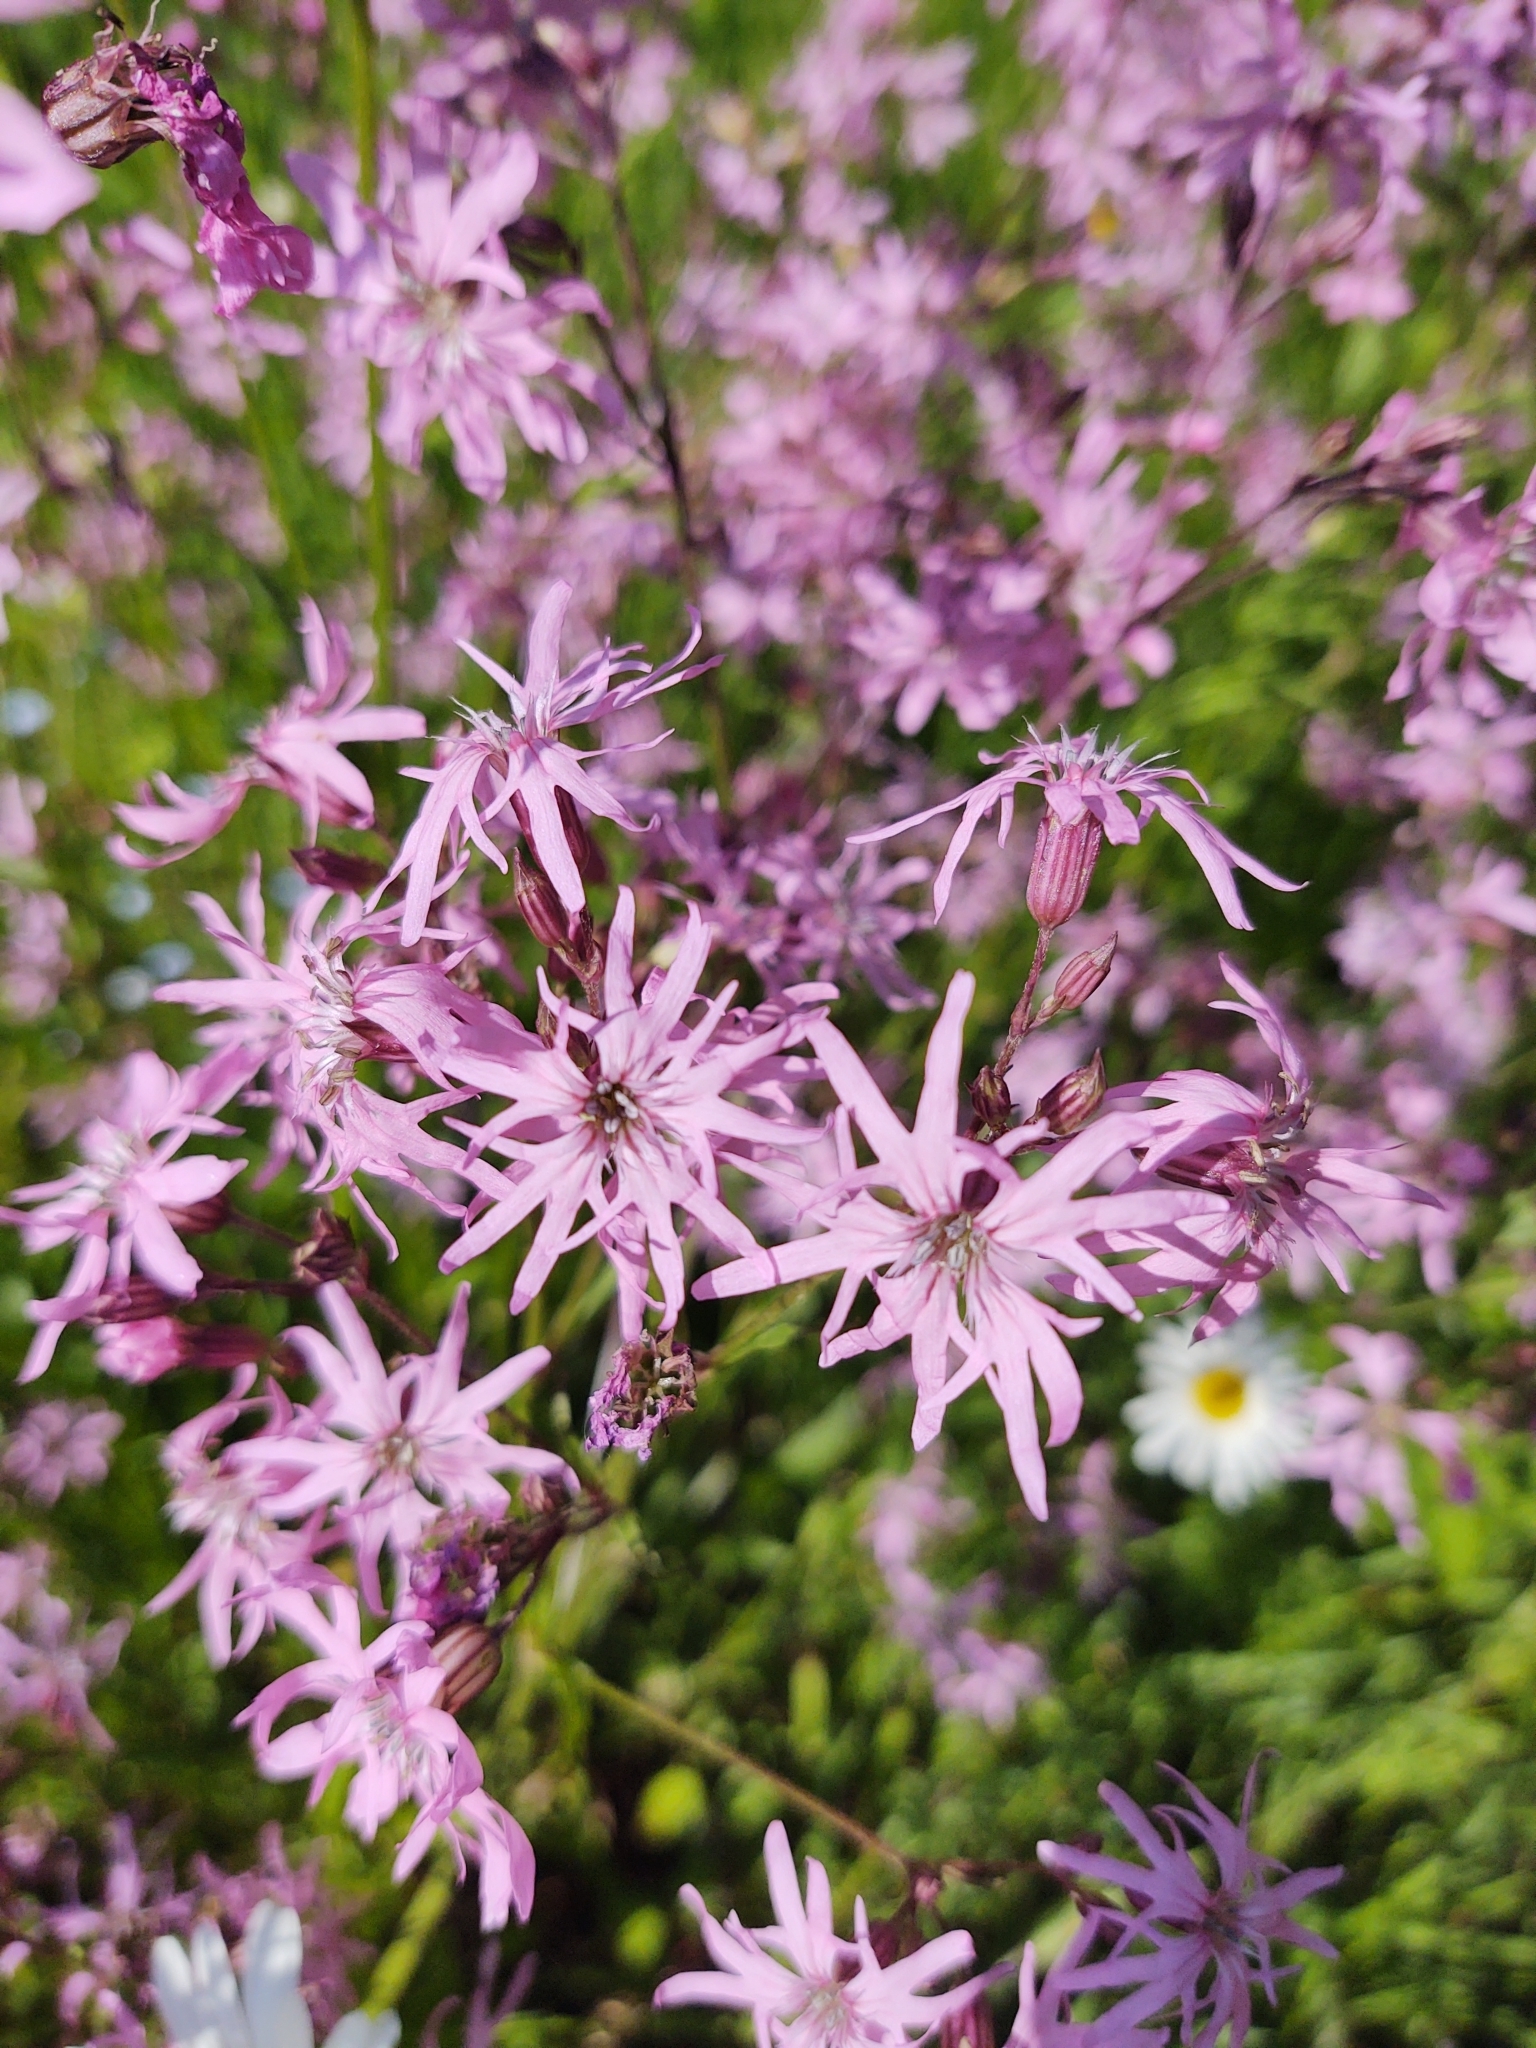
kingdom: Plantae
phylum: Tracheophyta
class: Magnoliopsida
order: Caryophyllales
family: Caryophyllaceae
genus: Silene
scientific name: Silene flos-cuculi
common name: Ragged-robin
